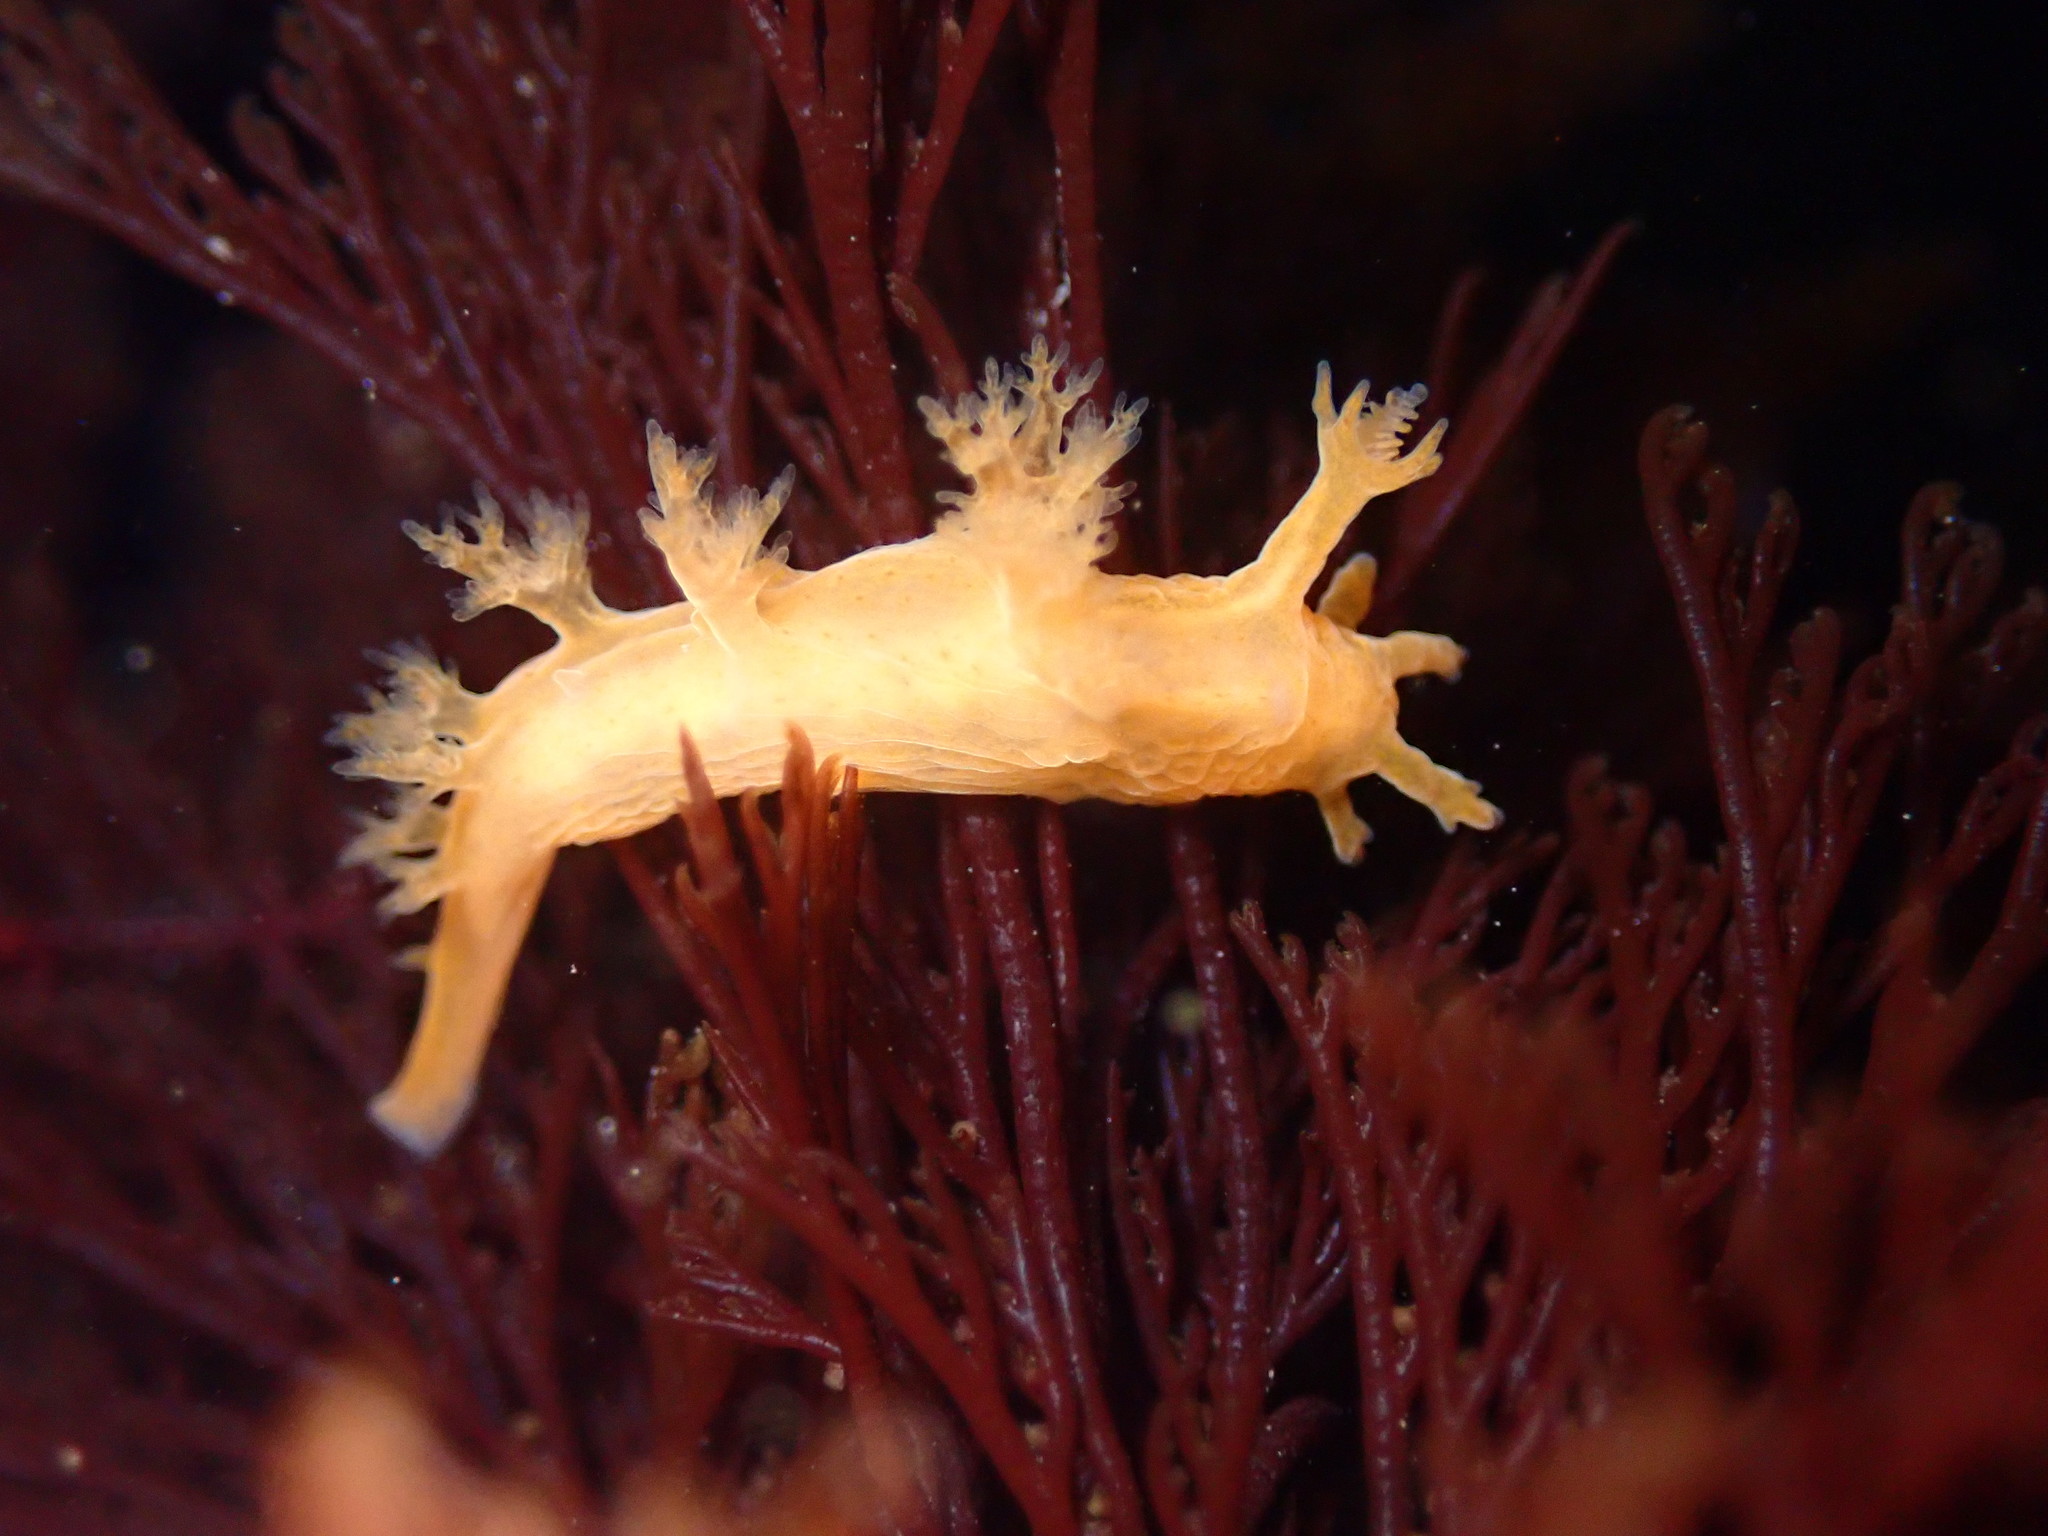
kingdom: Animalia
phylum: Mollusca
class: Gastropoda
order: Nudibranchia
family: Dendronotidae
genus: Dendronotus
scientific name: Dendronotus subramosus
